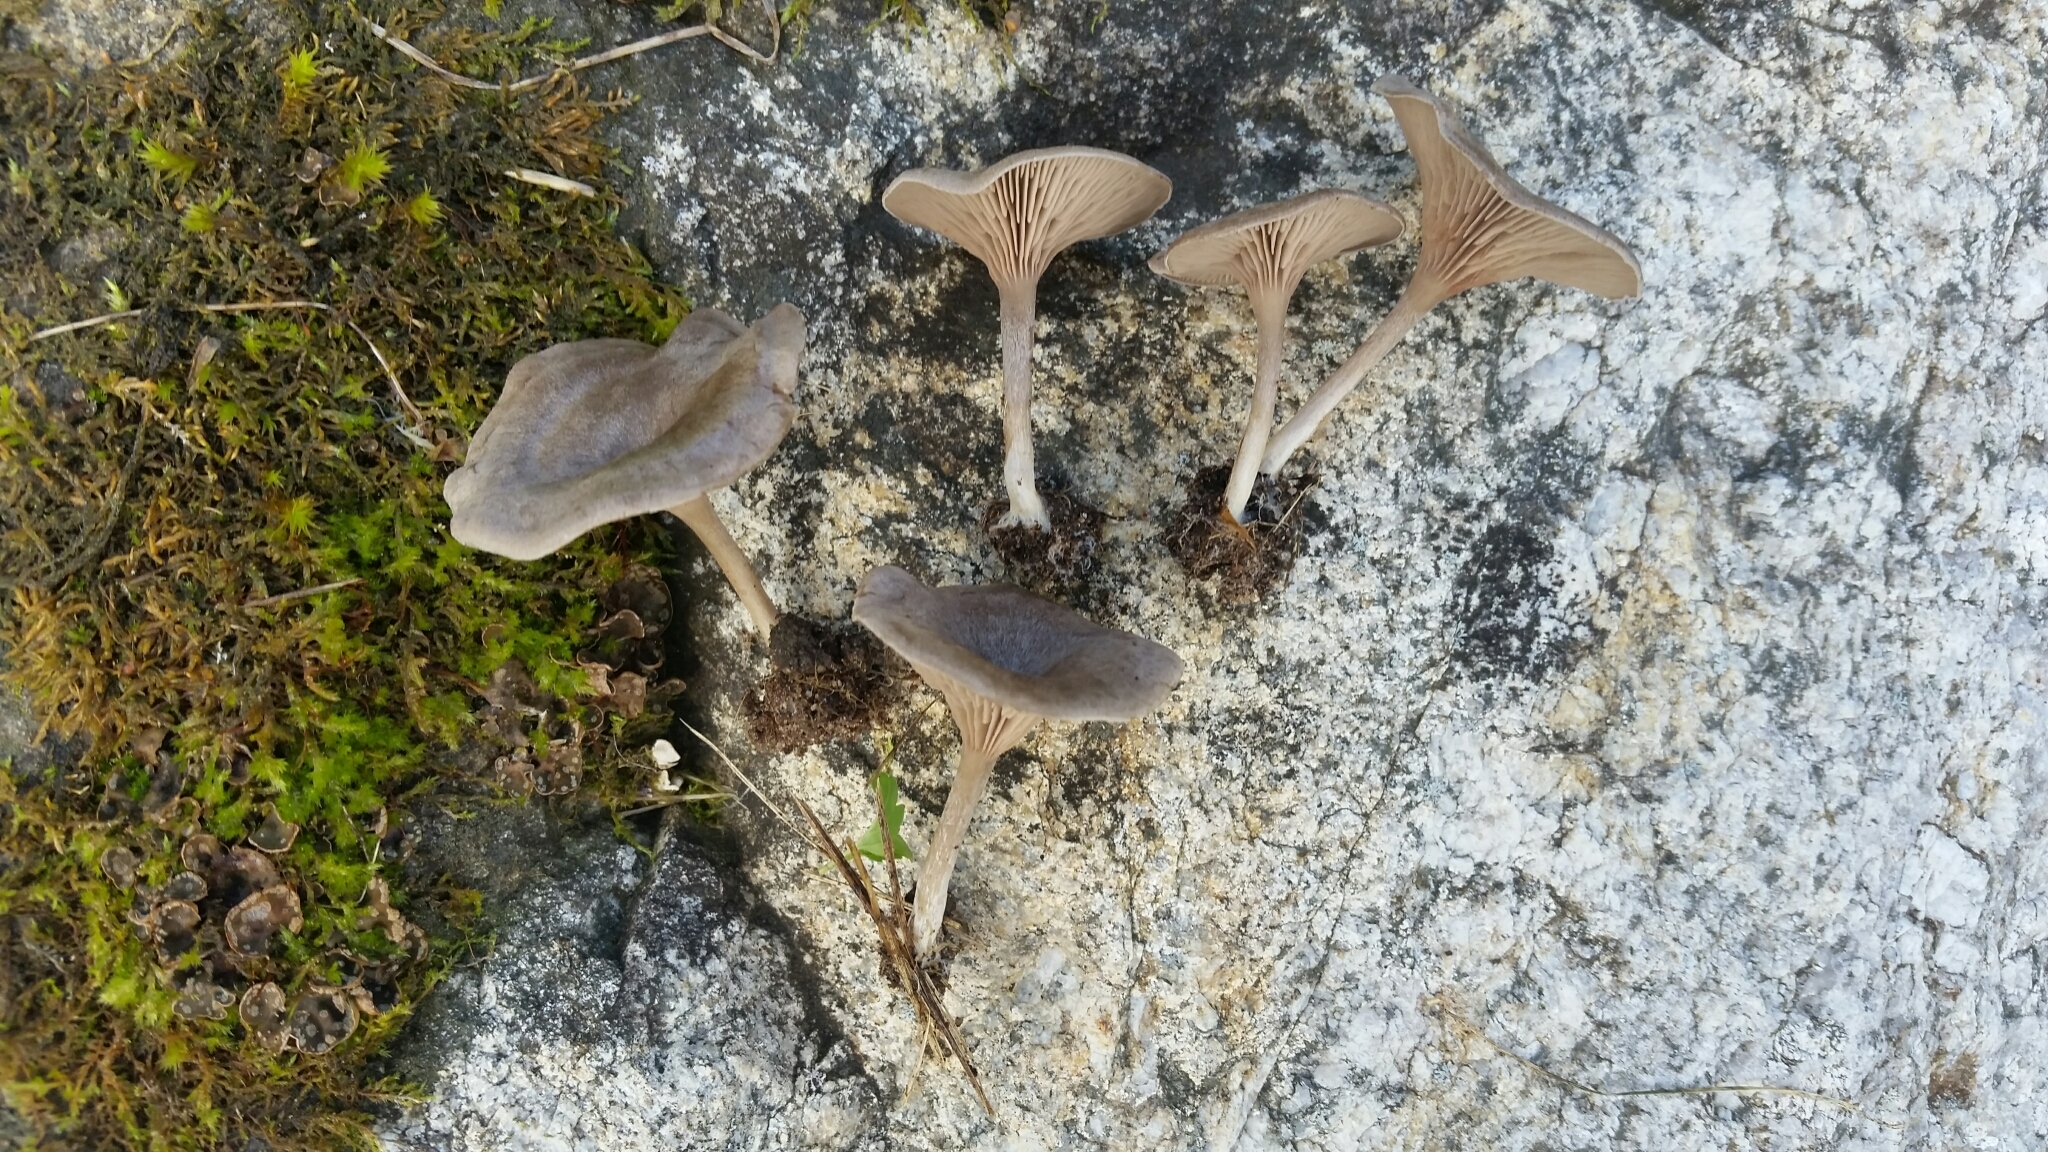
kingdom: Fungi
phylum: Basidiomycota
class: Agaricomycetes
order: Agaricales
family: Entolomataceae
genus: Entoloma
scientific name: Entoloma undatum
